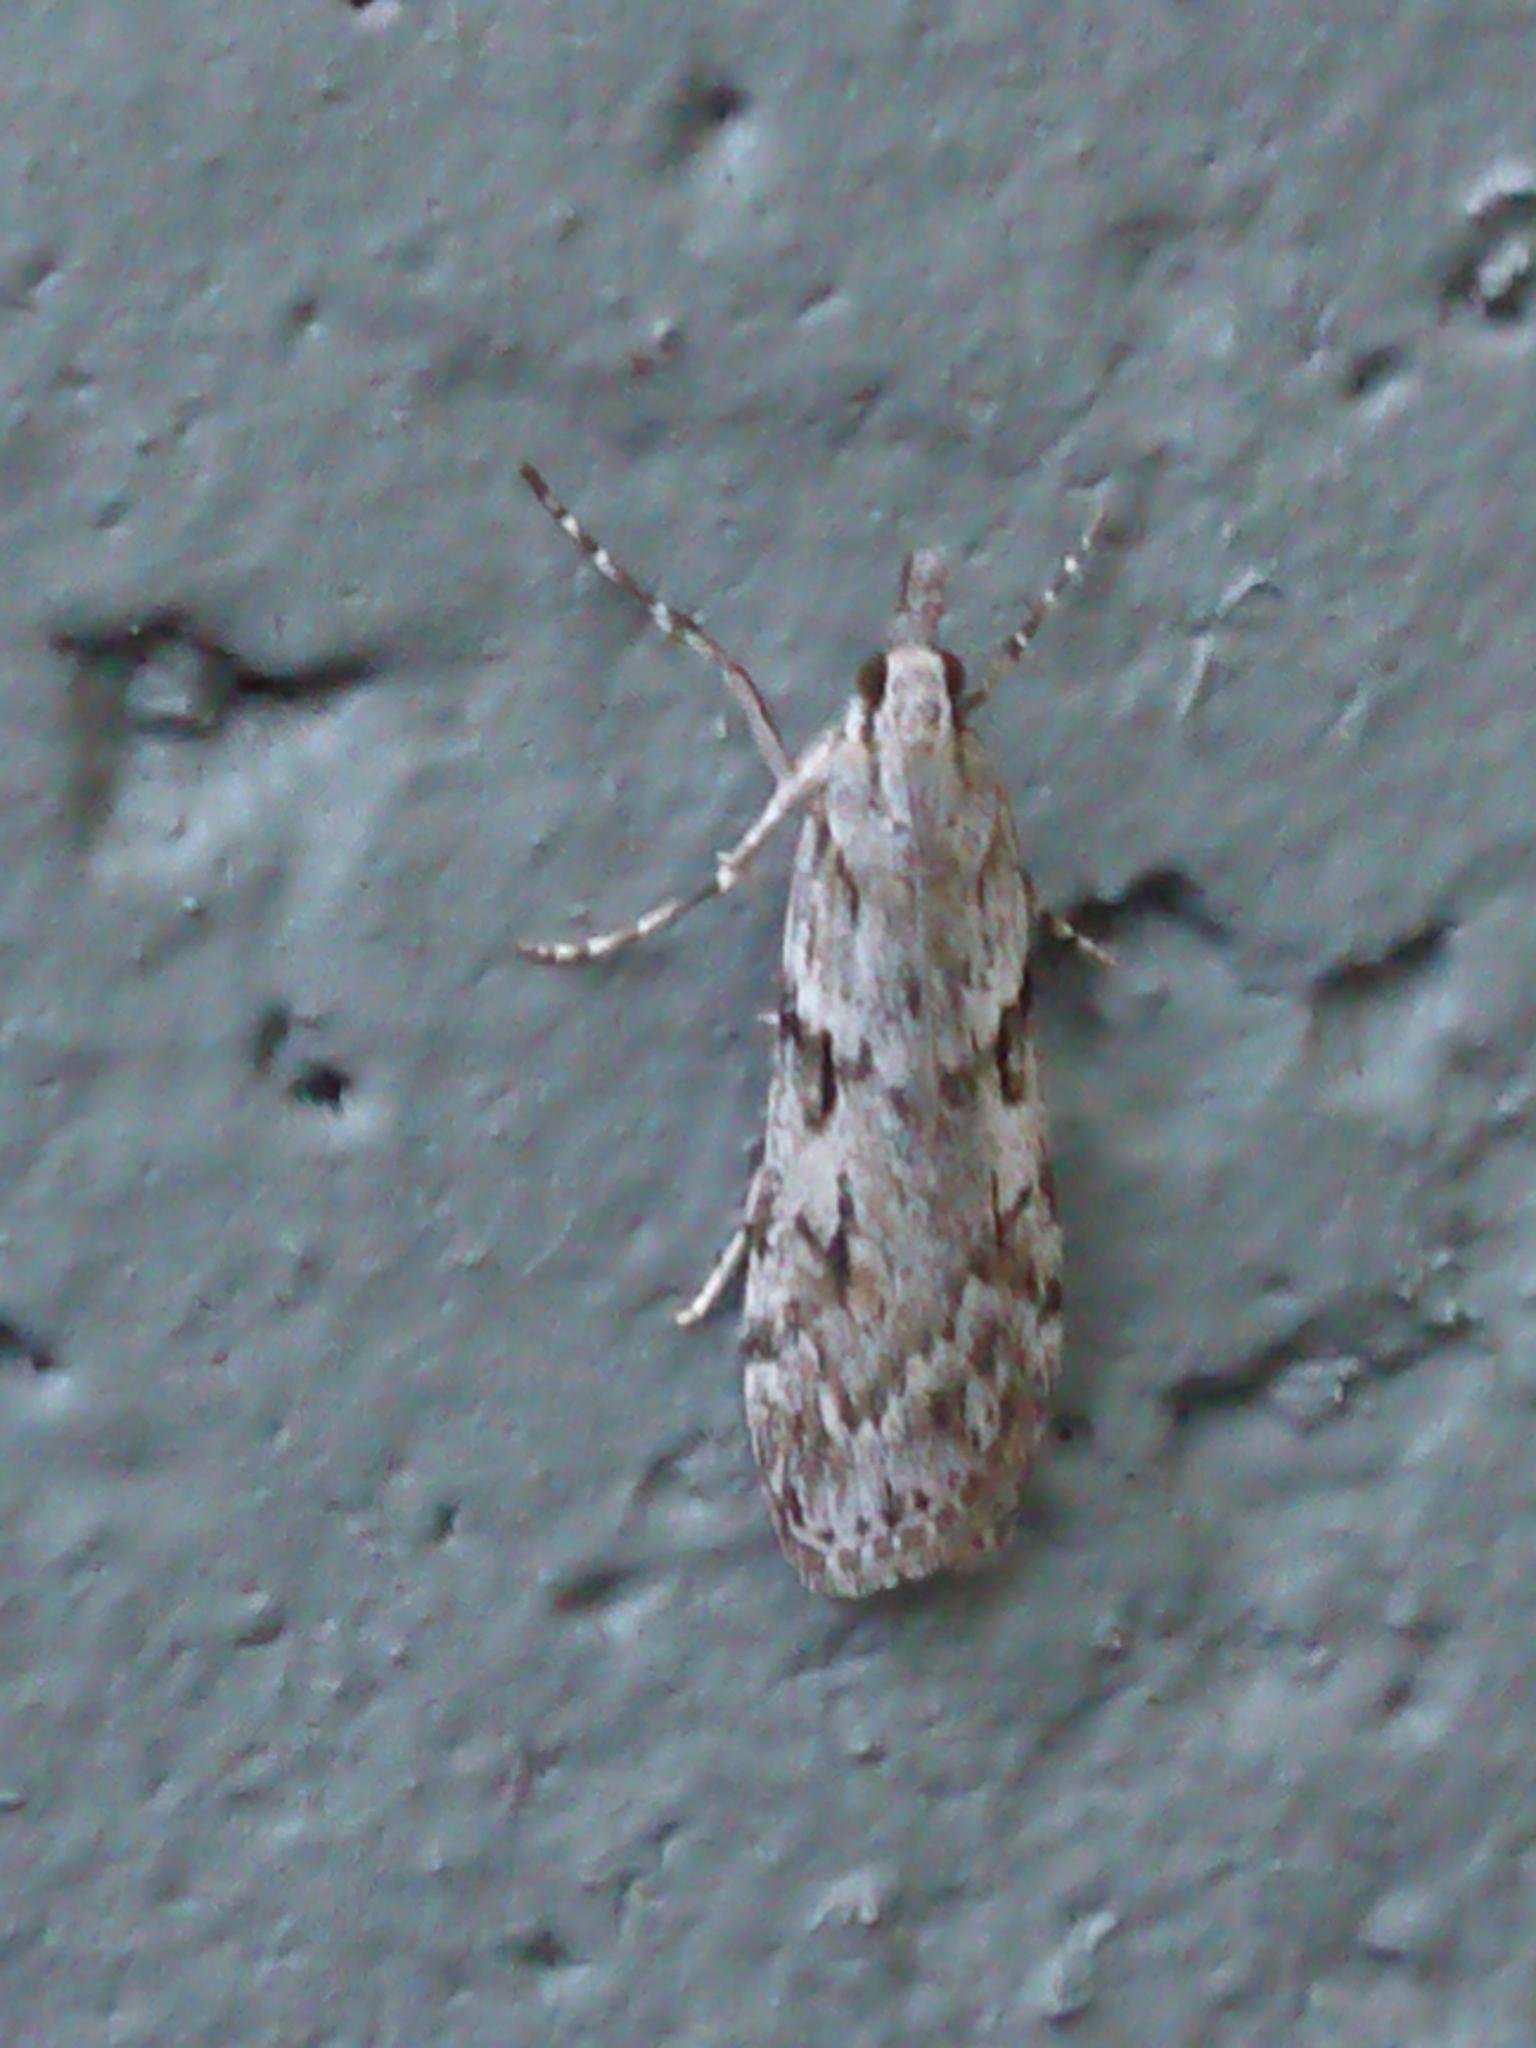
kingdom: Animalia
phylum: Arthropoda
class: Insecta
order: Lepidoptera
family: Crambidae
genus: Scoparia
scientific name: Scoparia halopis
